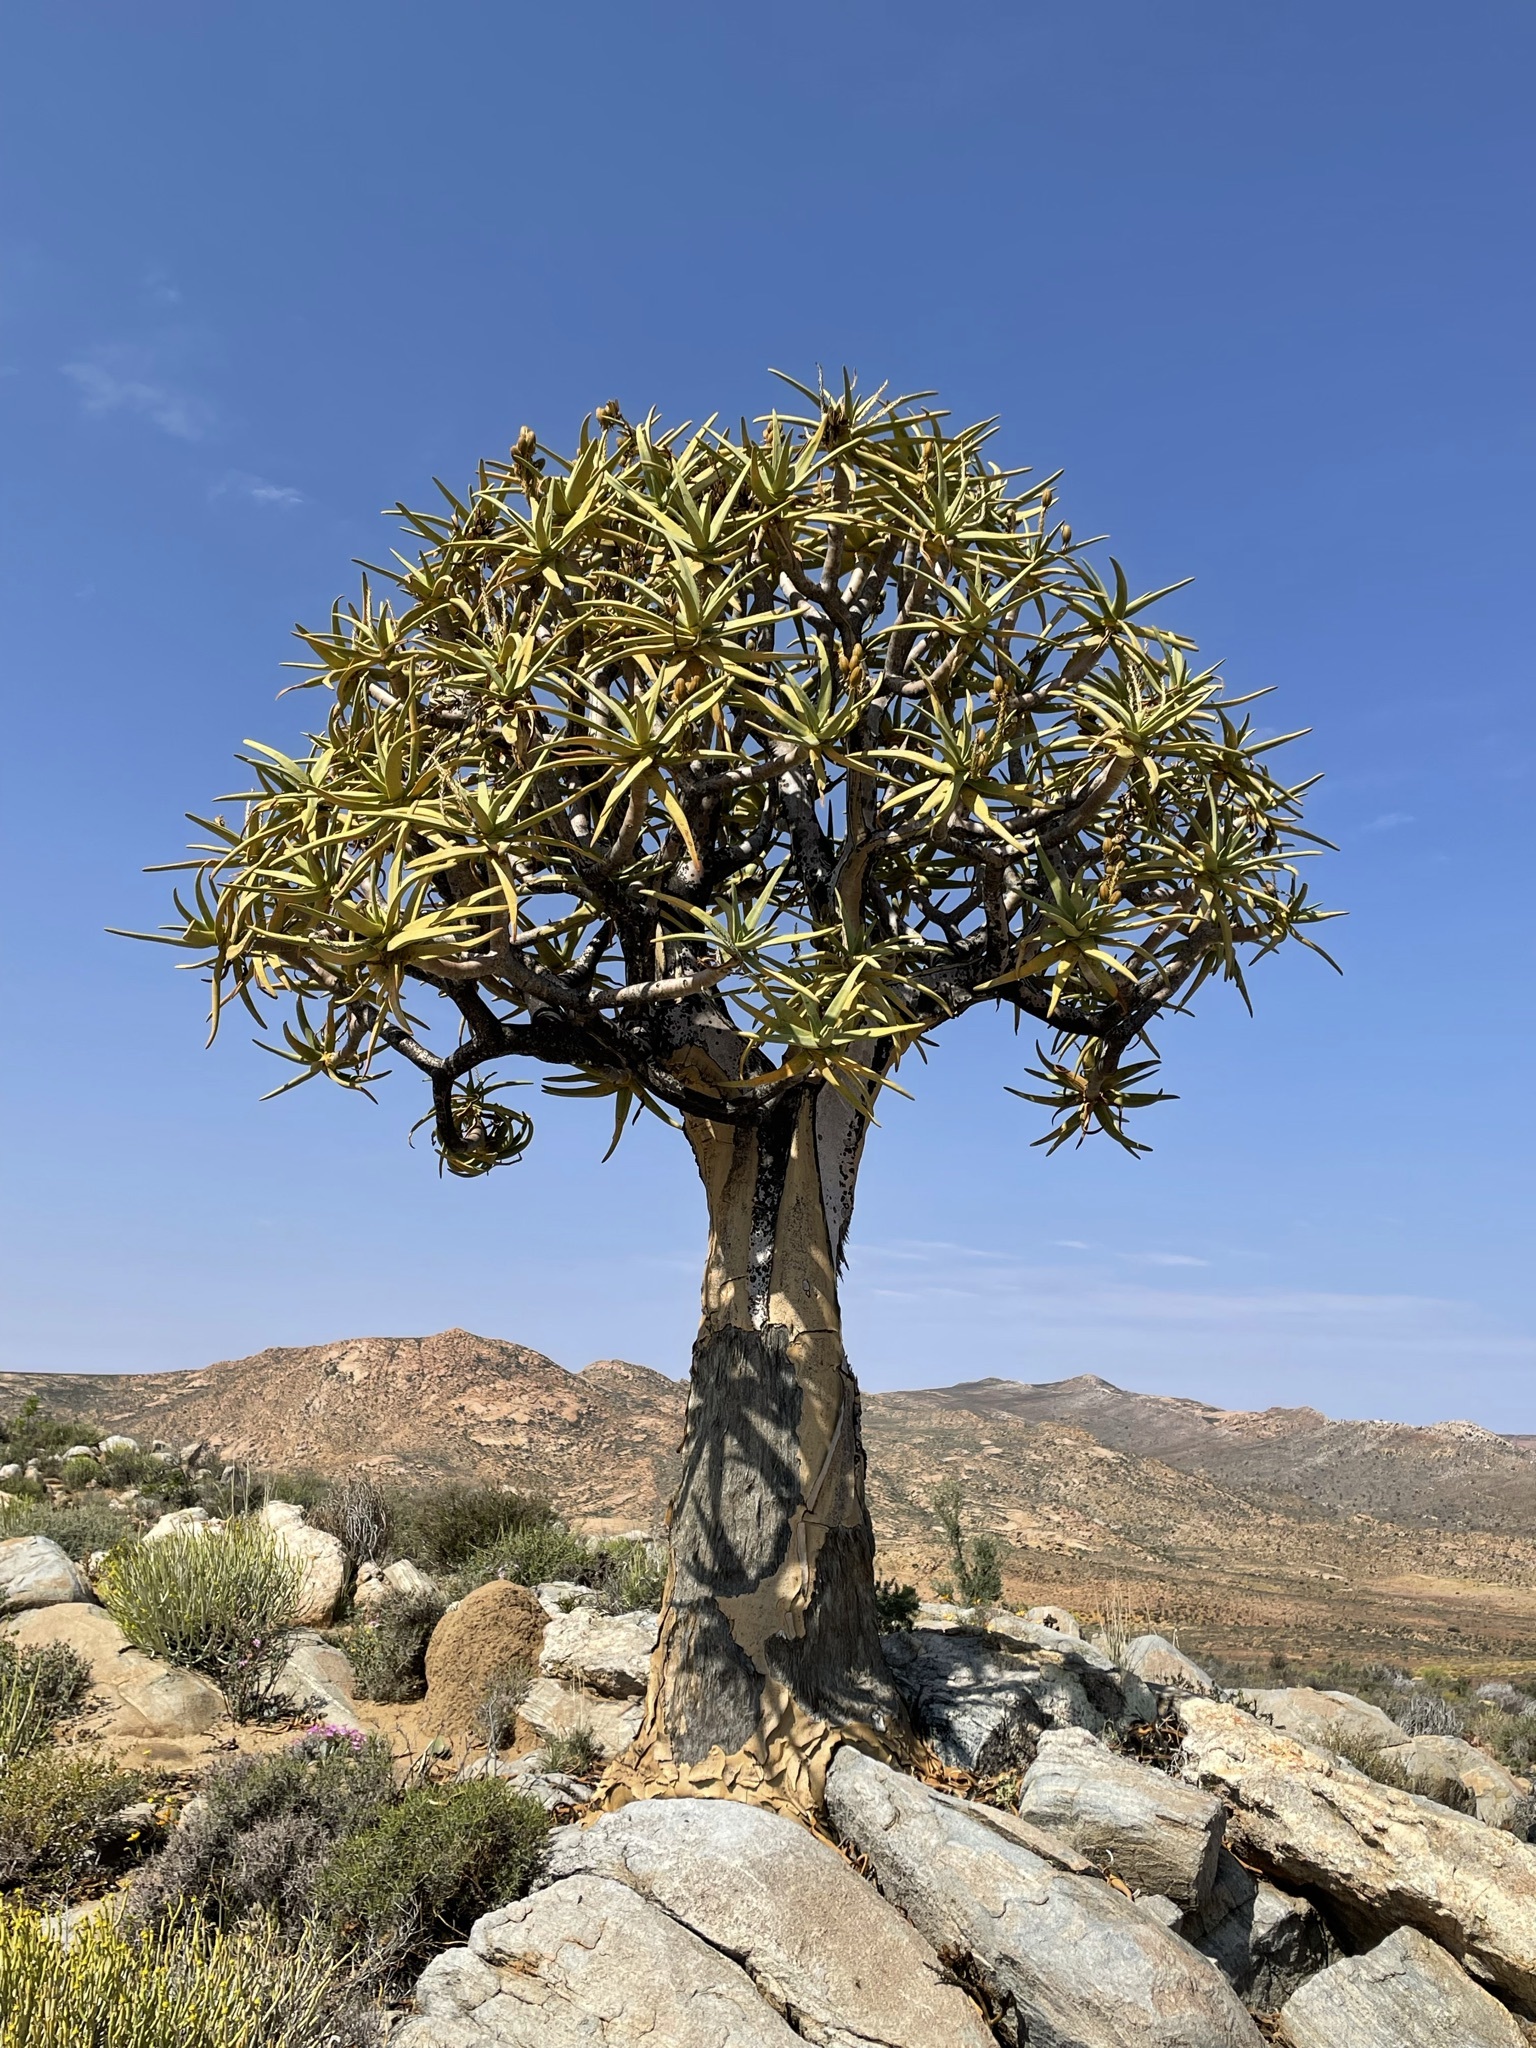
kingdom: Plantae
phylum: Tracheophyta
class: Liliopsida
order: Asparagales
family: Asphodelaceae
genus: Aloidendron
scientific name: Aloidendron dichotomum
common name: Quiver tree
